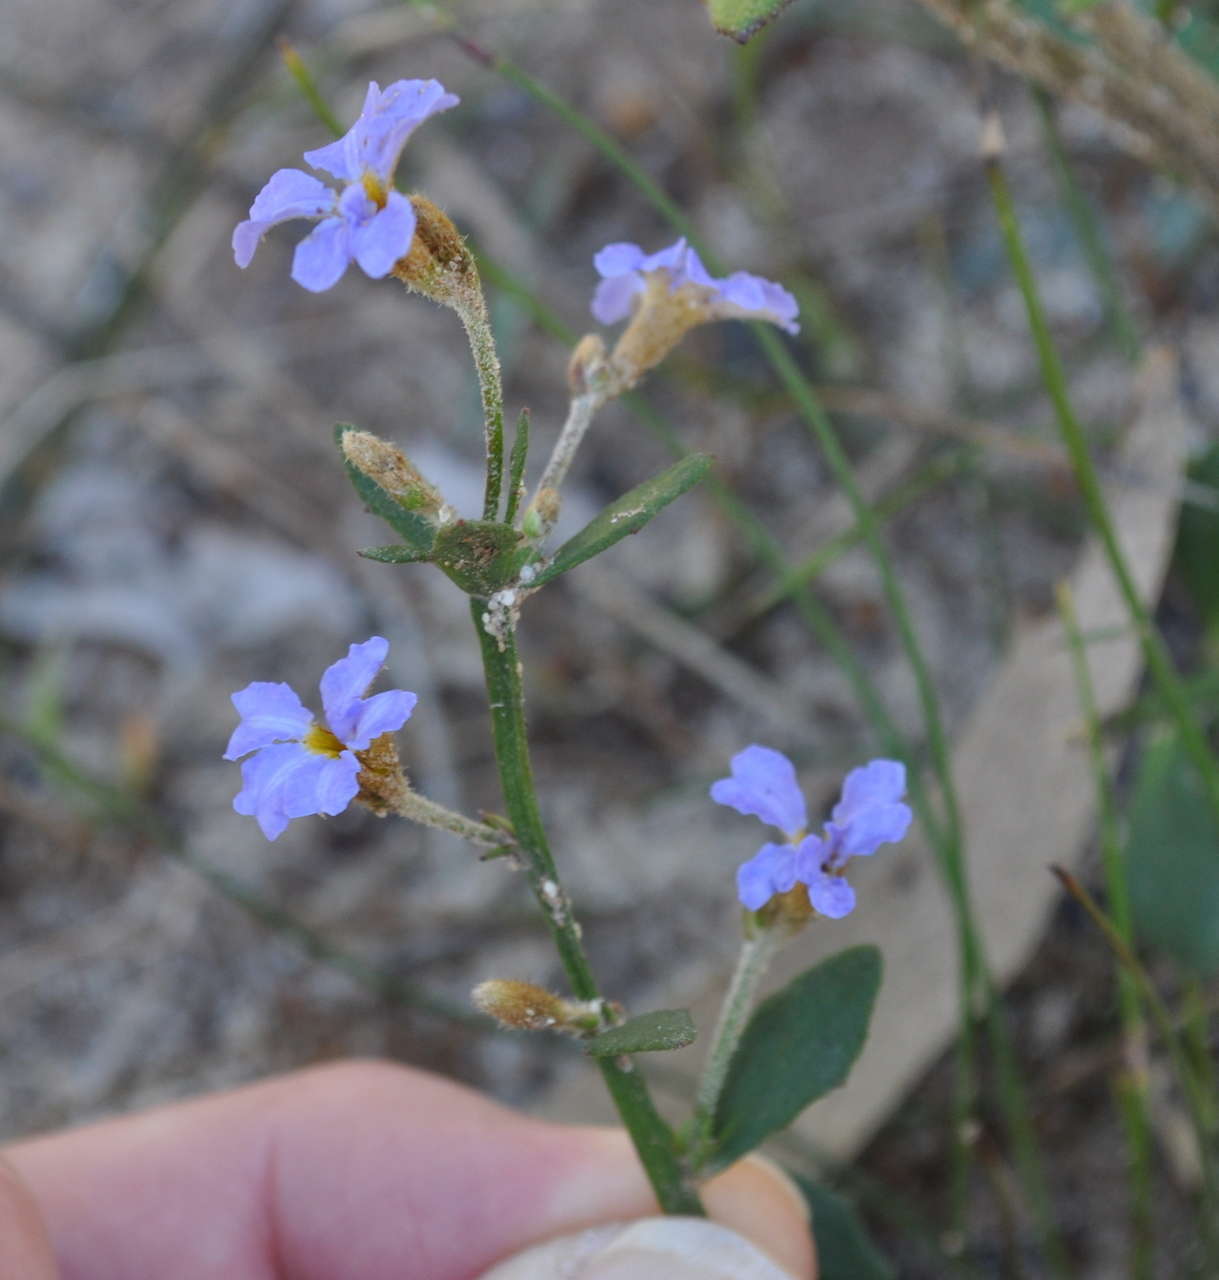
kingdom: Plantae
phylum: Tracheophyta
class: Magnoliopsida
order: Asterales
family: Goodeniaceae
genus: Dampiera
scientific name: Dampiera stricta
